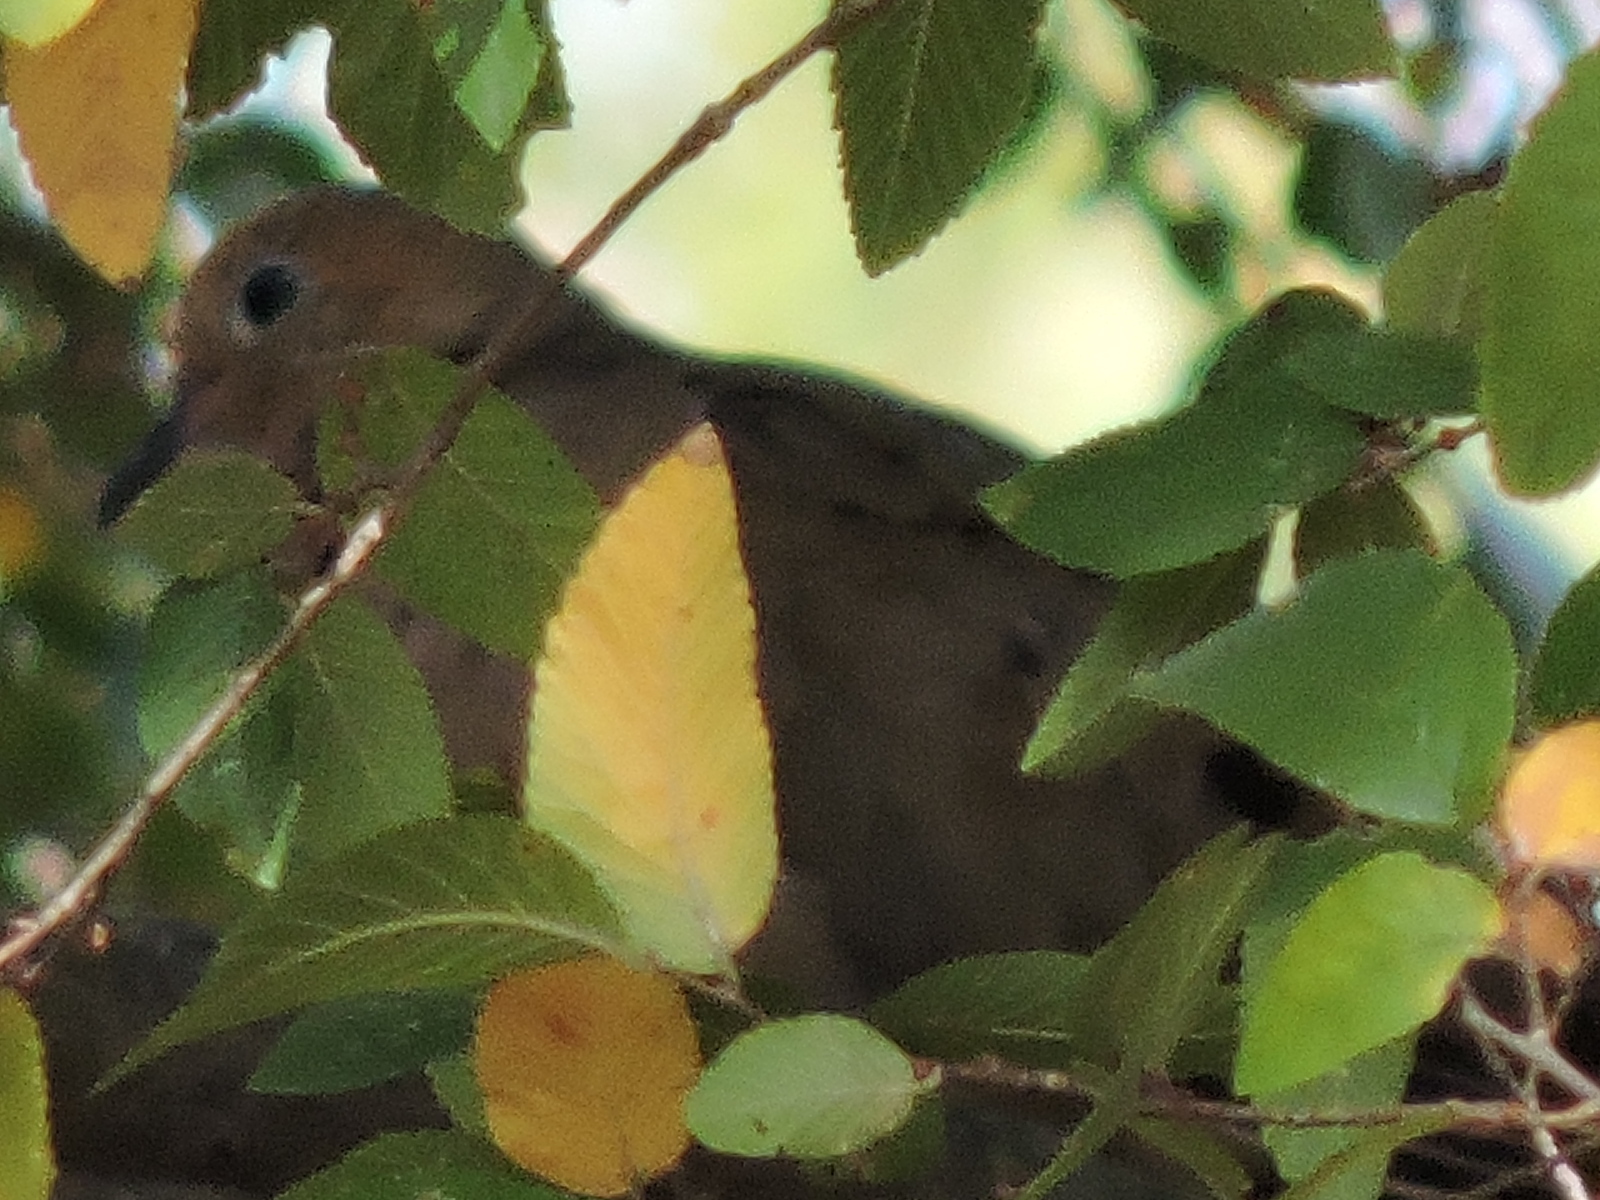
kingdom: Animalia
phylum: Chordata
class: Aves
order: Columbiformes
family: Columbidae
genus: Zenaida
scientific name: Zenaida macroura
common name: Mourning dove
